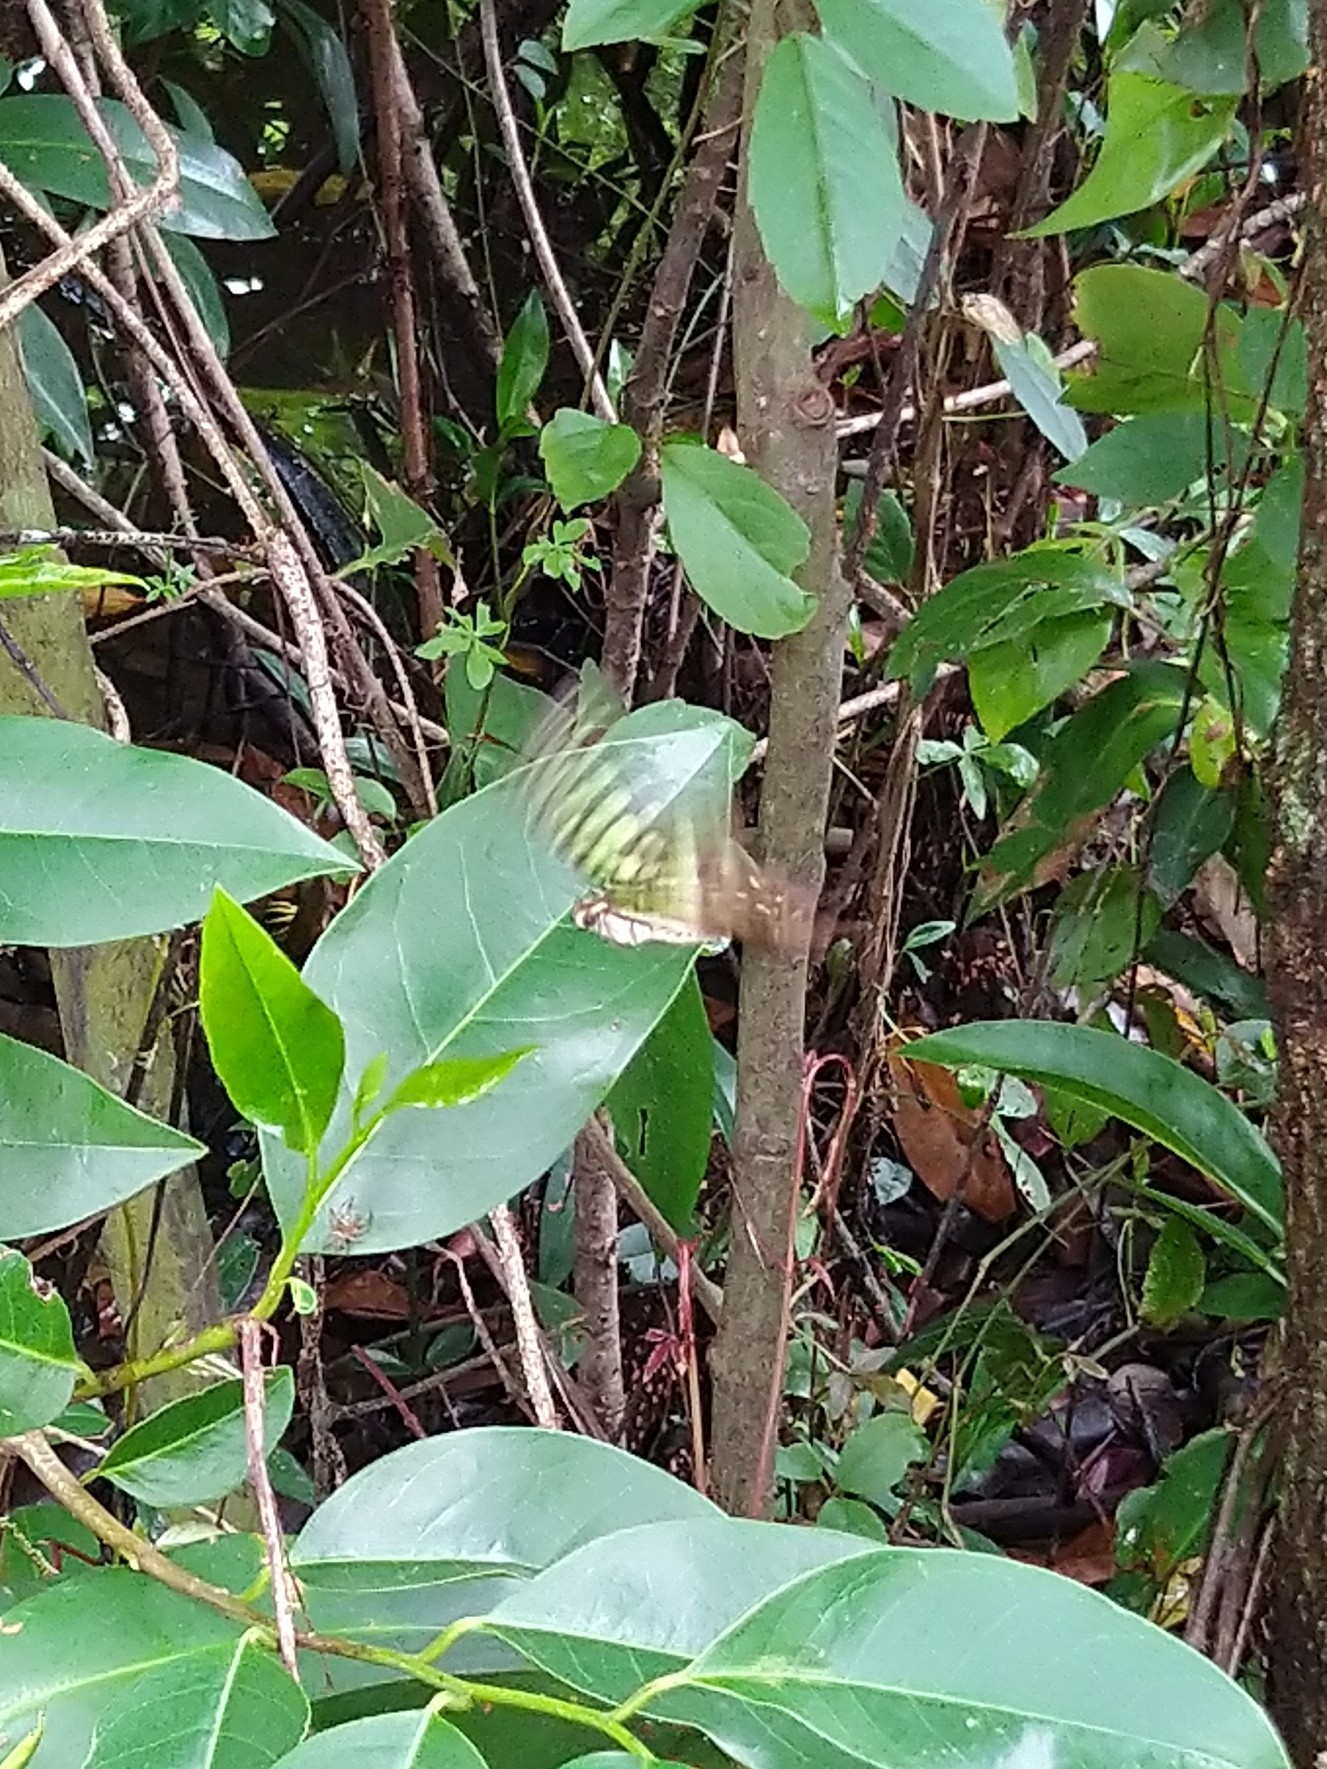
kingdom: Animalia
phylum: Arthropoda
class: Insecta
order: Lepidoptera
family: Papilionidae
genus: Graphium
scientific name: Graphium agamemnon
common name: Tailed jay
